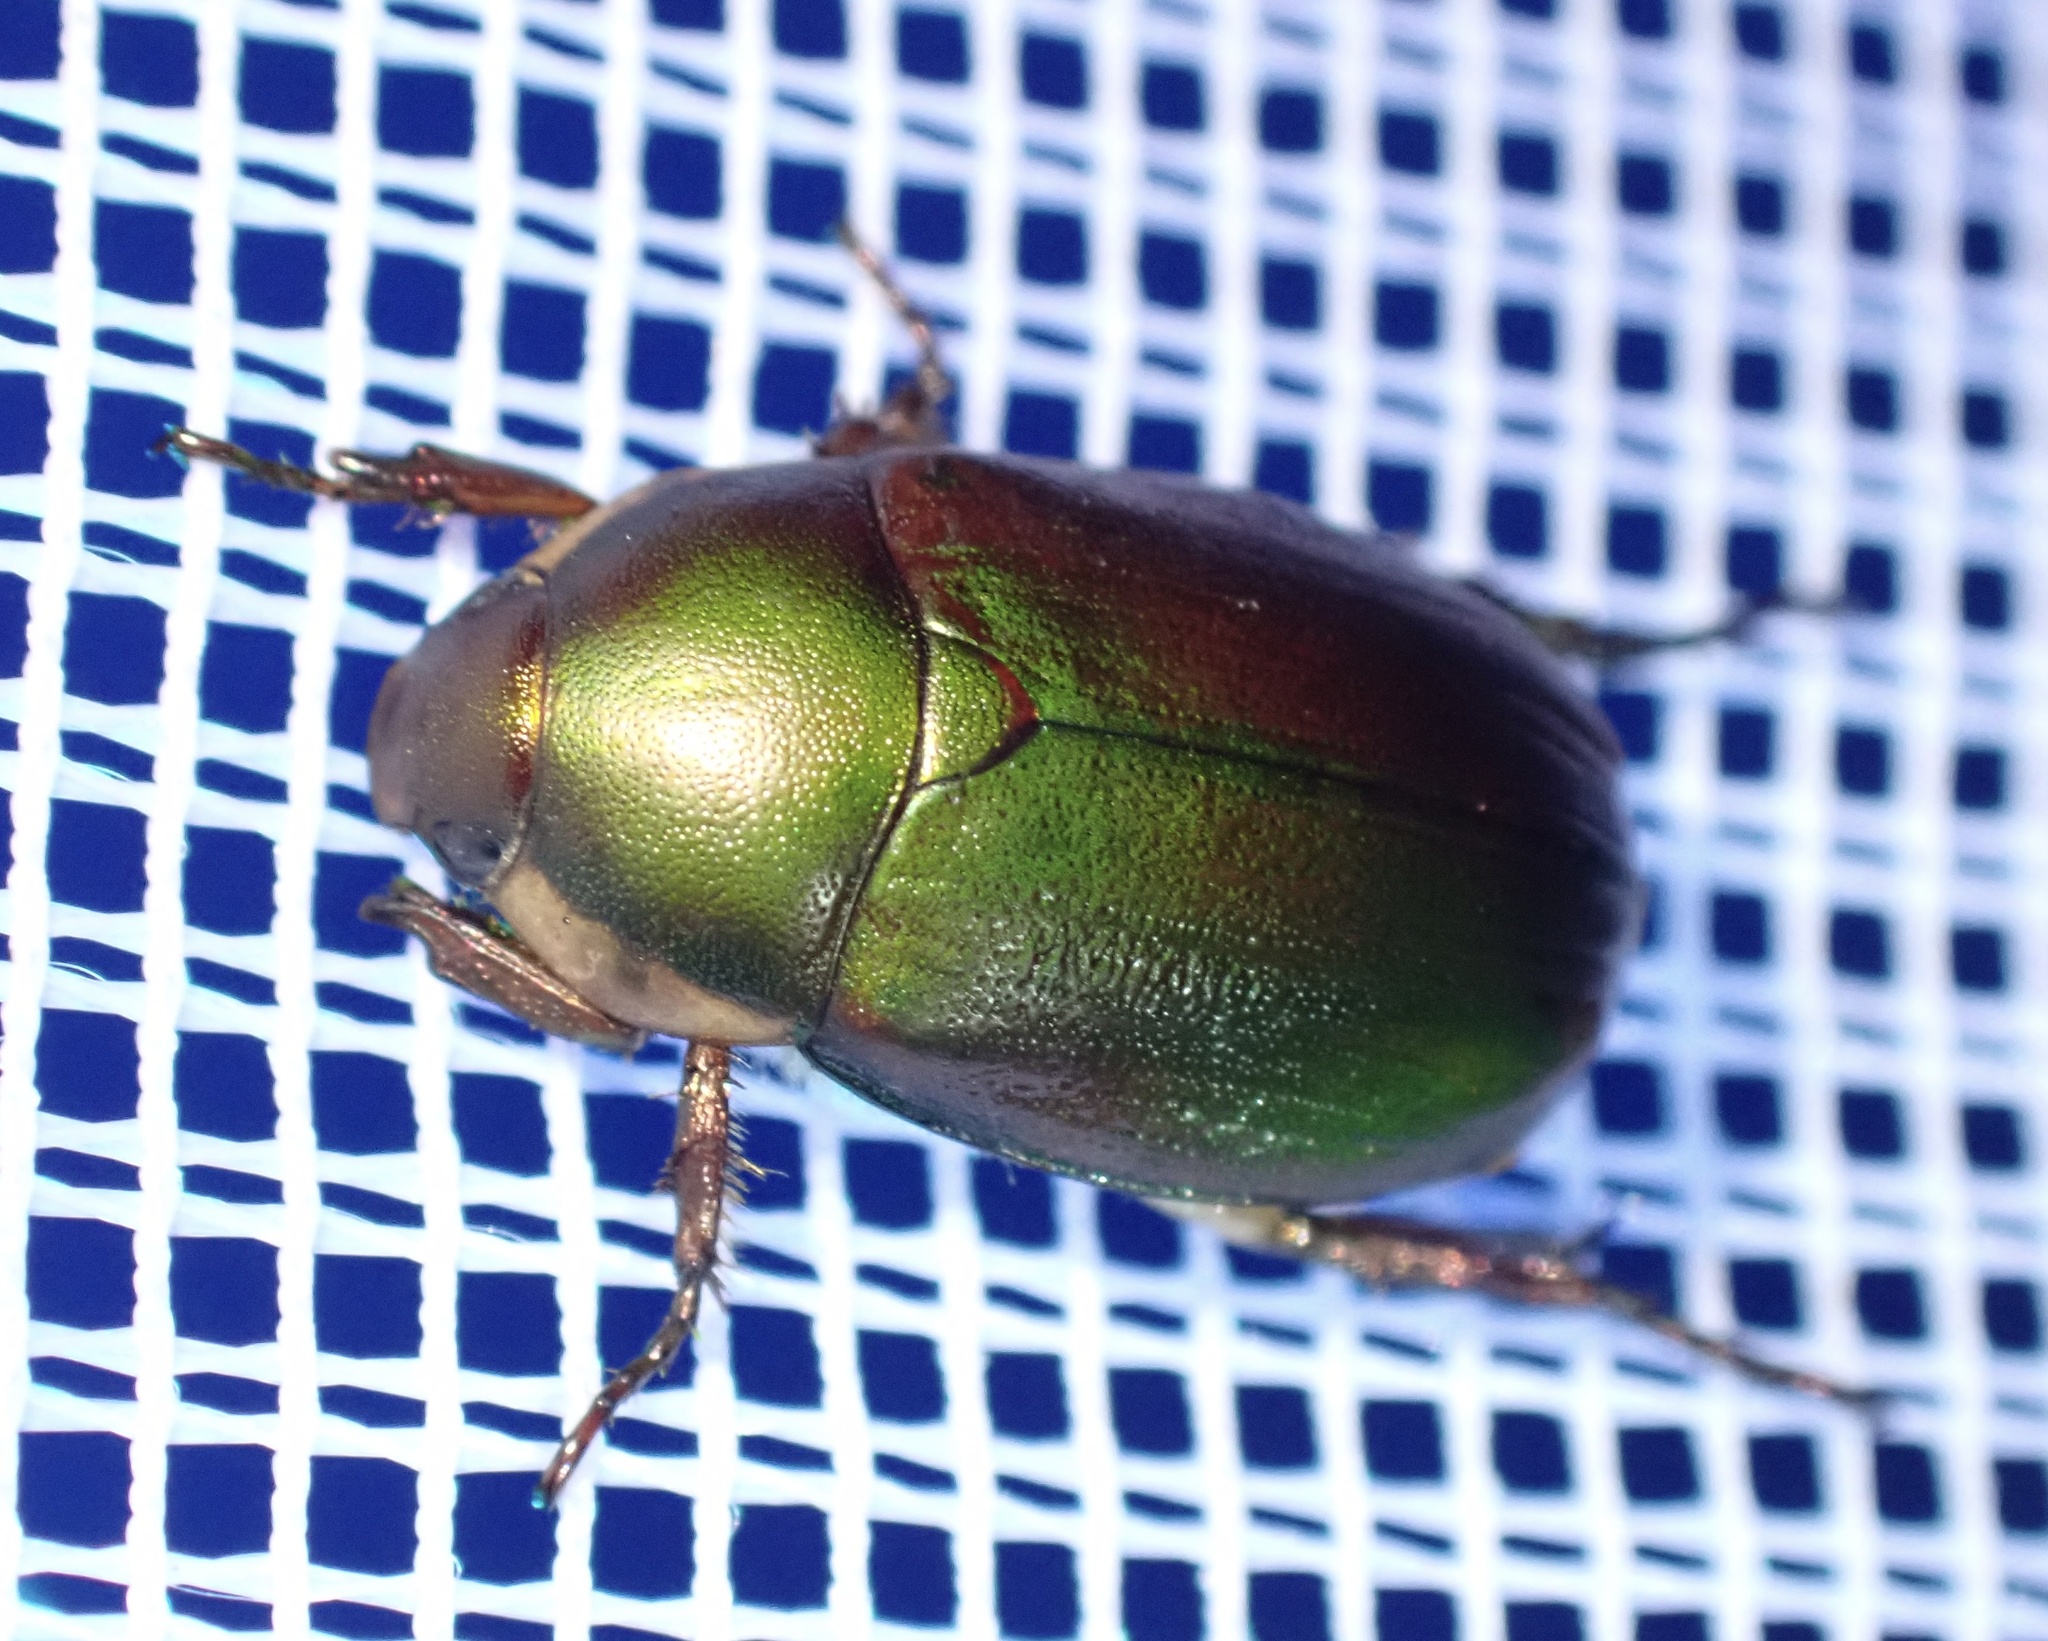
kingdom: Animalia
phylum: Arthropoda
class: Insecta
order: Coleoptera
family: Scarabaeidae
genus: Anomala
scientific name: Anomala minahassae
